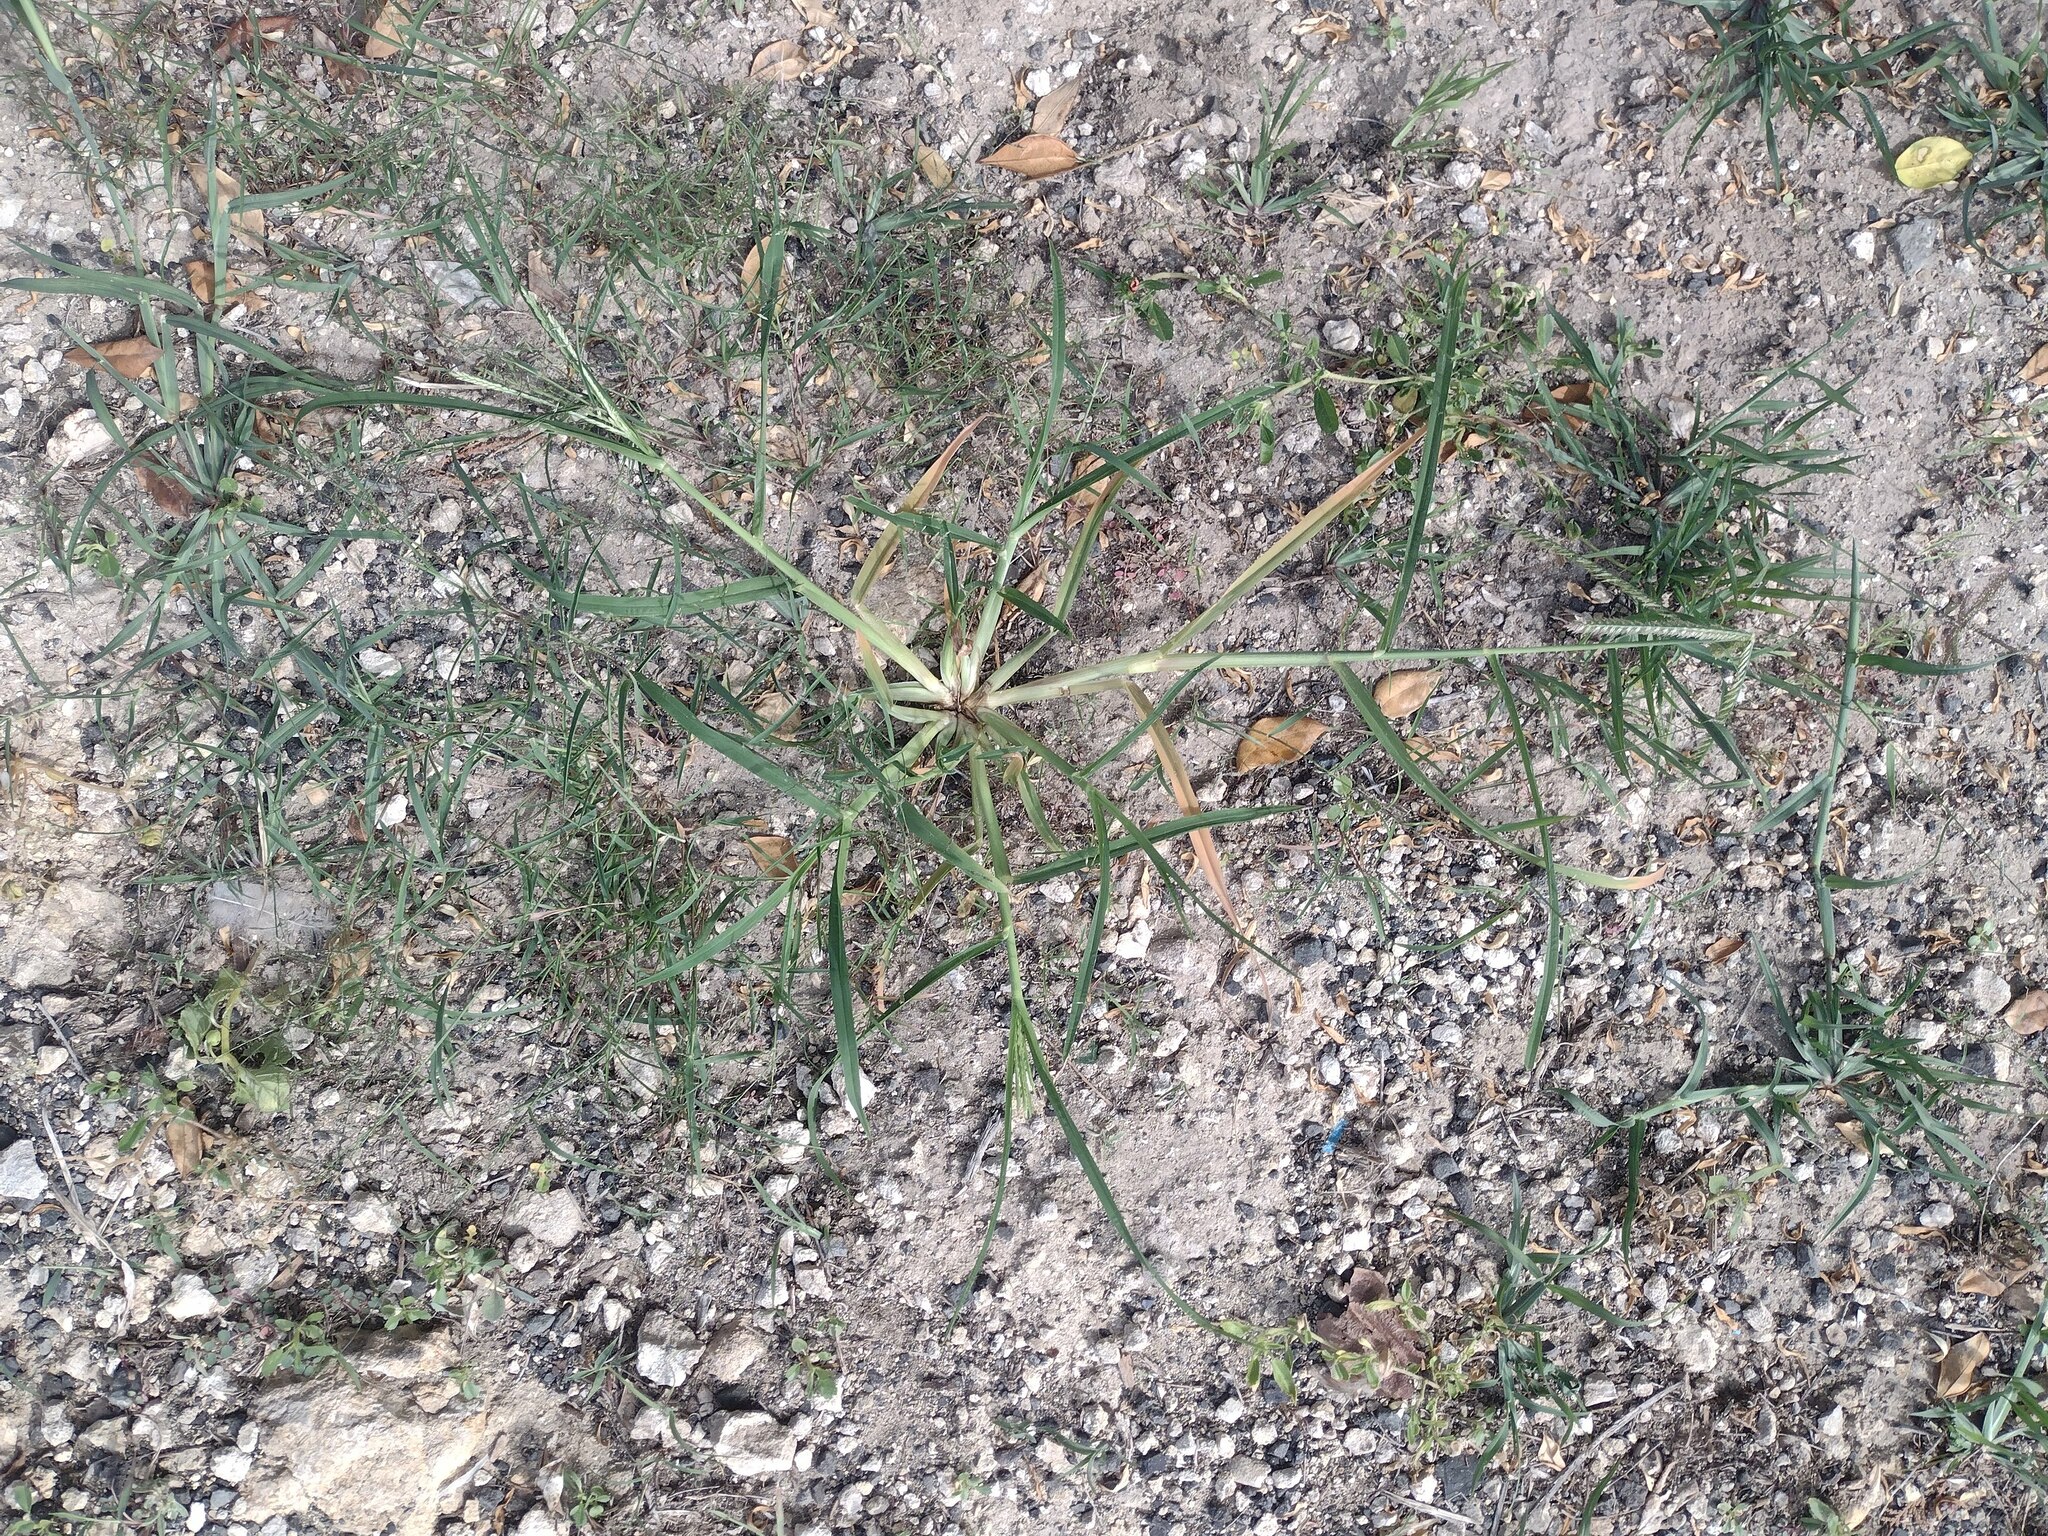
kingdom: Plantae
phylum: Tracheophyta
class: Liliopsida
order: Poales
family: Poaceae
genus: Eleusine
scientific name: Eleusine indica
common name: Yard-grass
